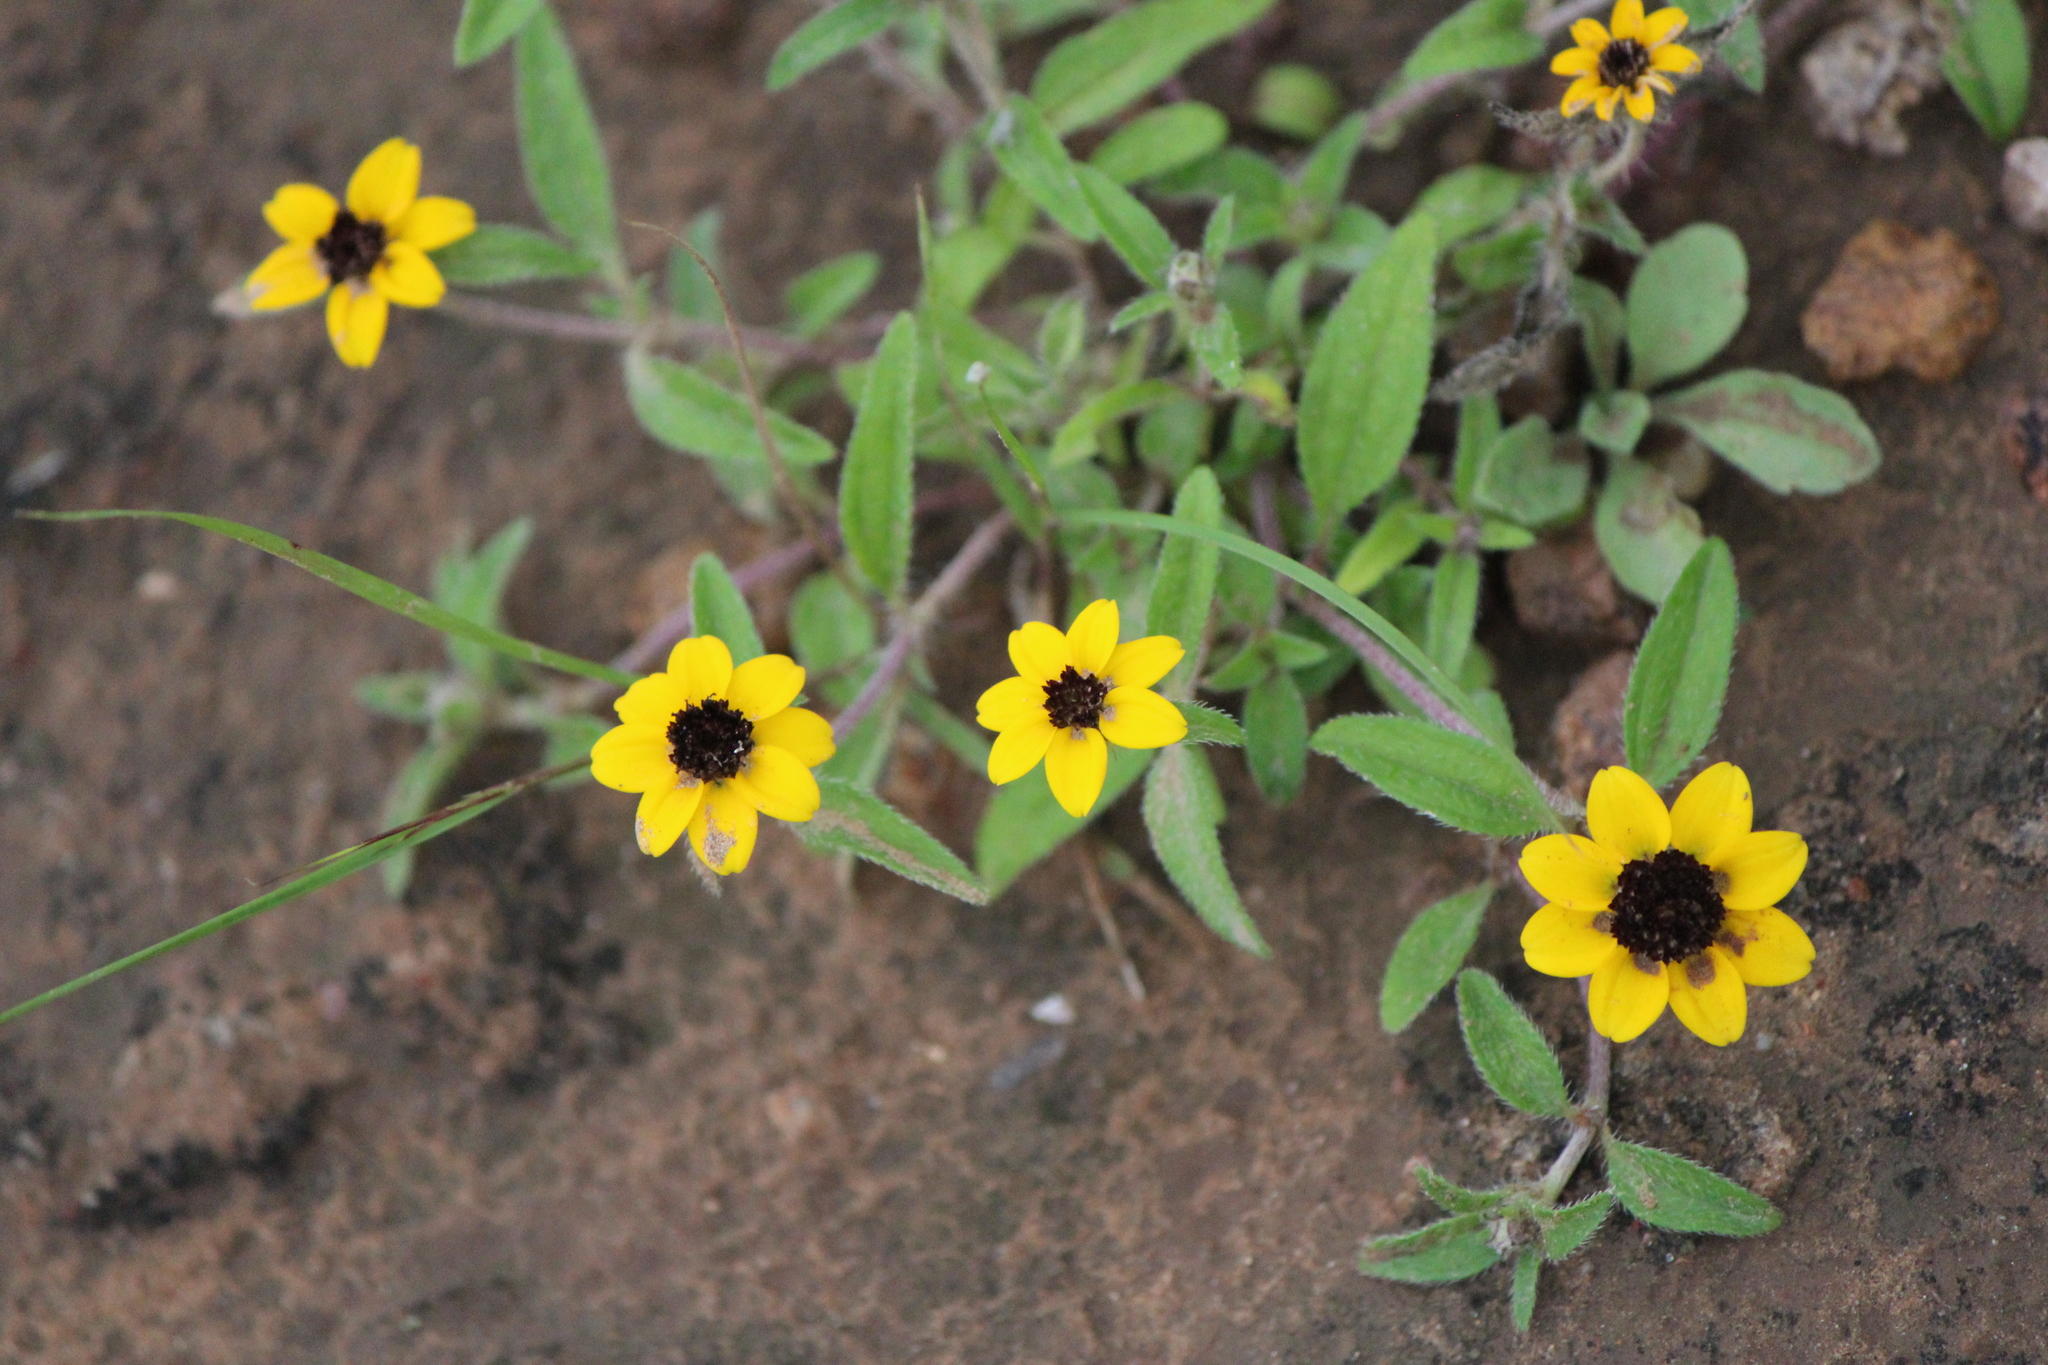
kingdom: Plantae
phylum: Tracheophyta
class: Magnoliopsida
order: Asterales
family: Asteraceae
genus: Sanvitalia
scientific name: Sanvitalia procumbens
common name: Mexican creeping zinnia
